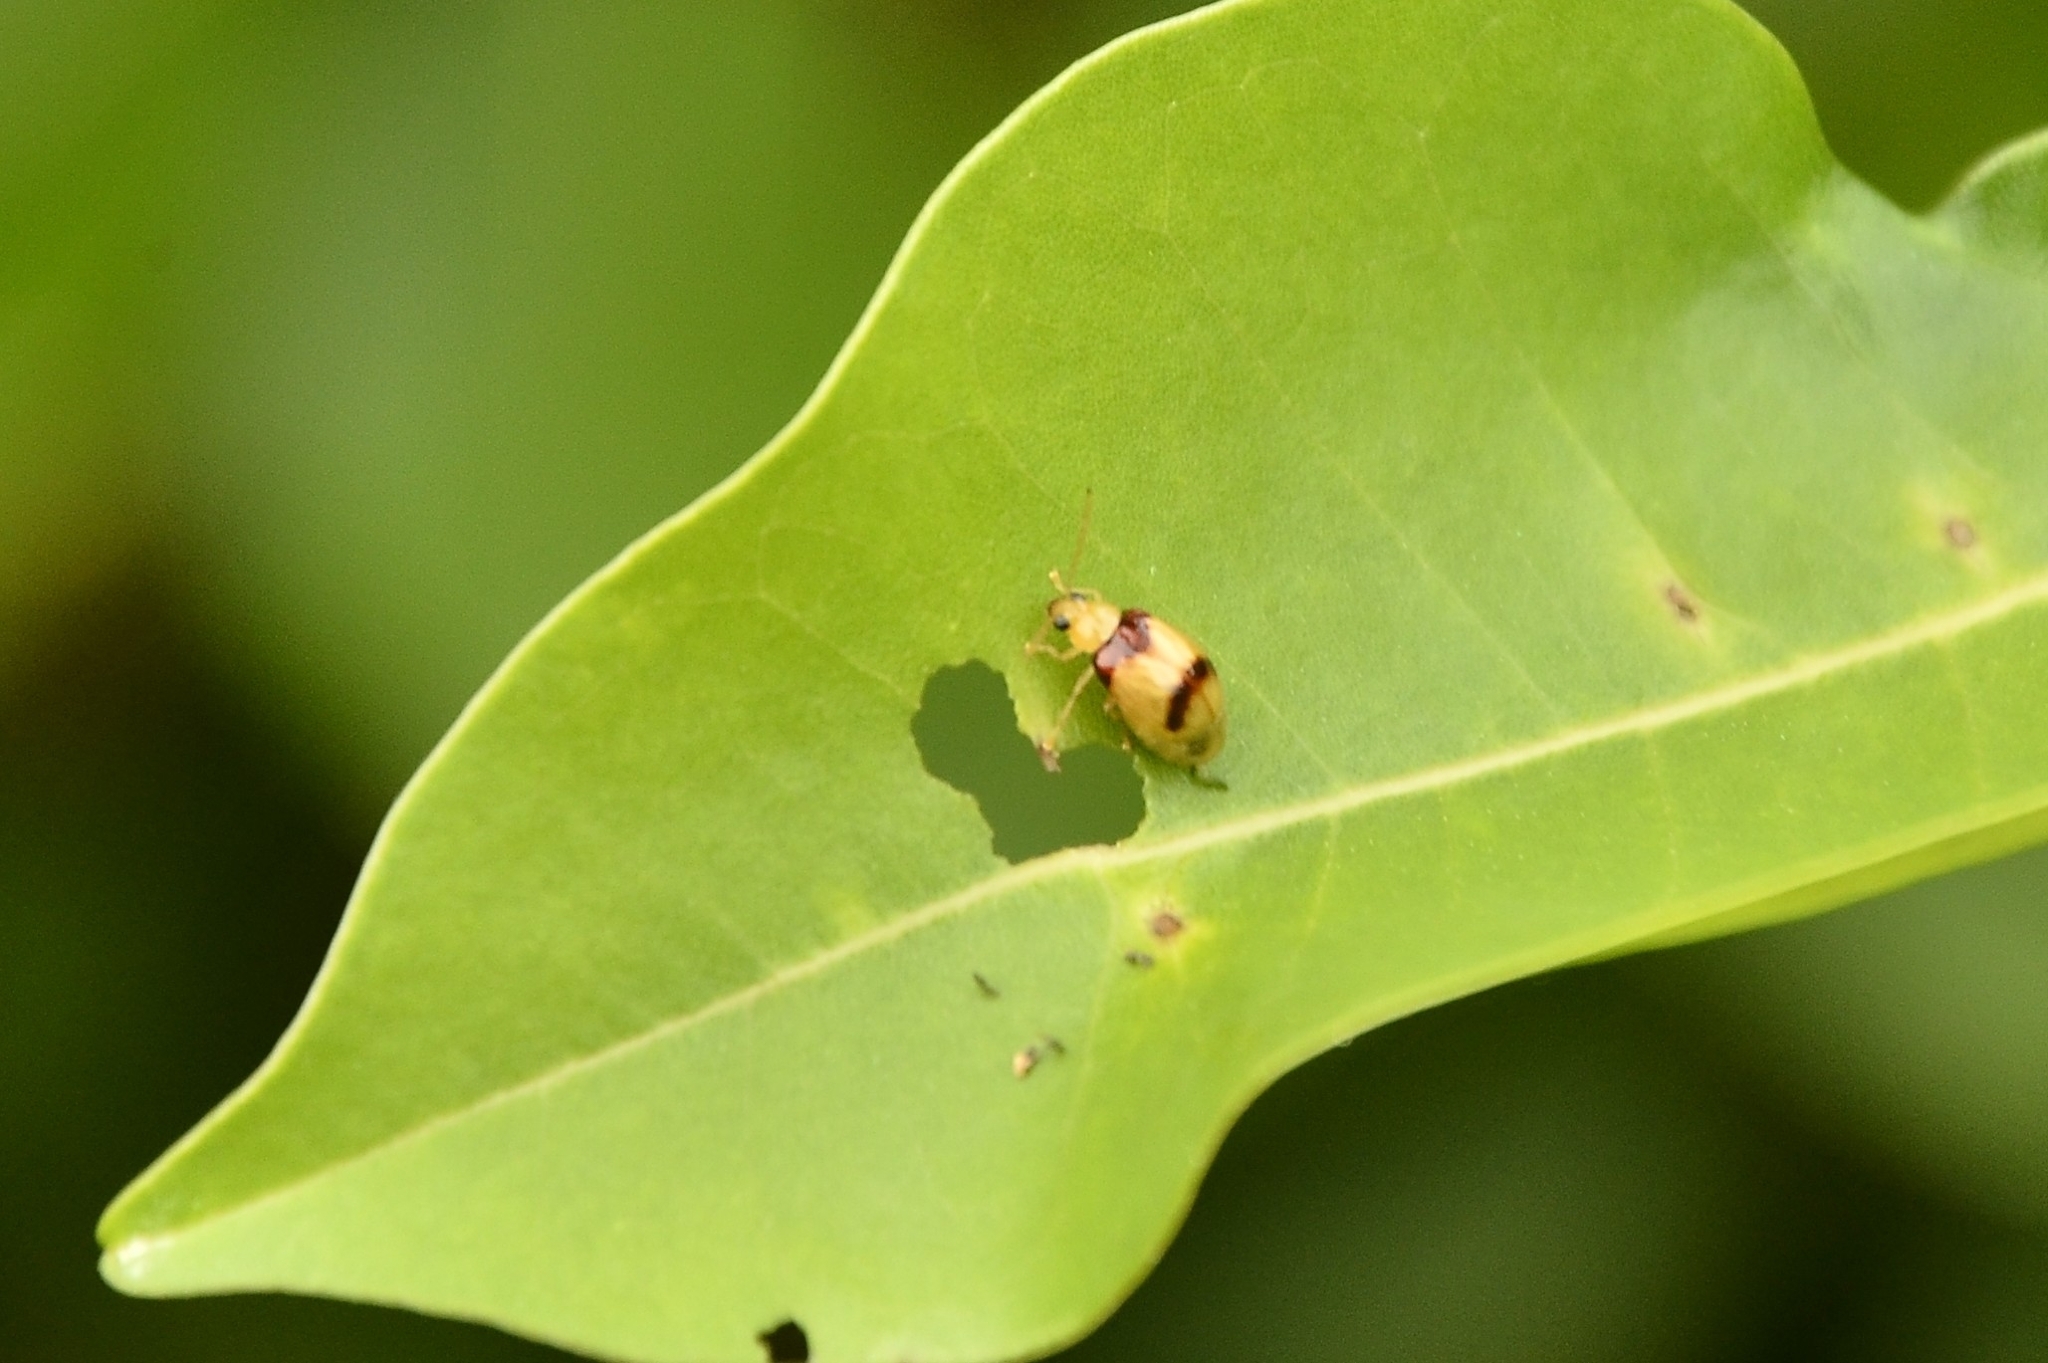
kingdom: Animalia
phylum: Arthropoda
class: Insecta
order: Coleoptera
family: Chrysomelidae
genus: Monolepta
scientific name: Monolepta
